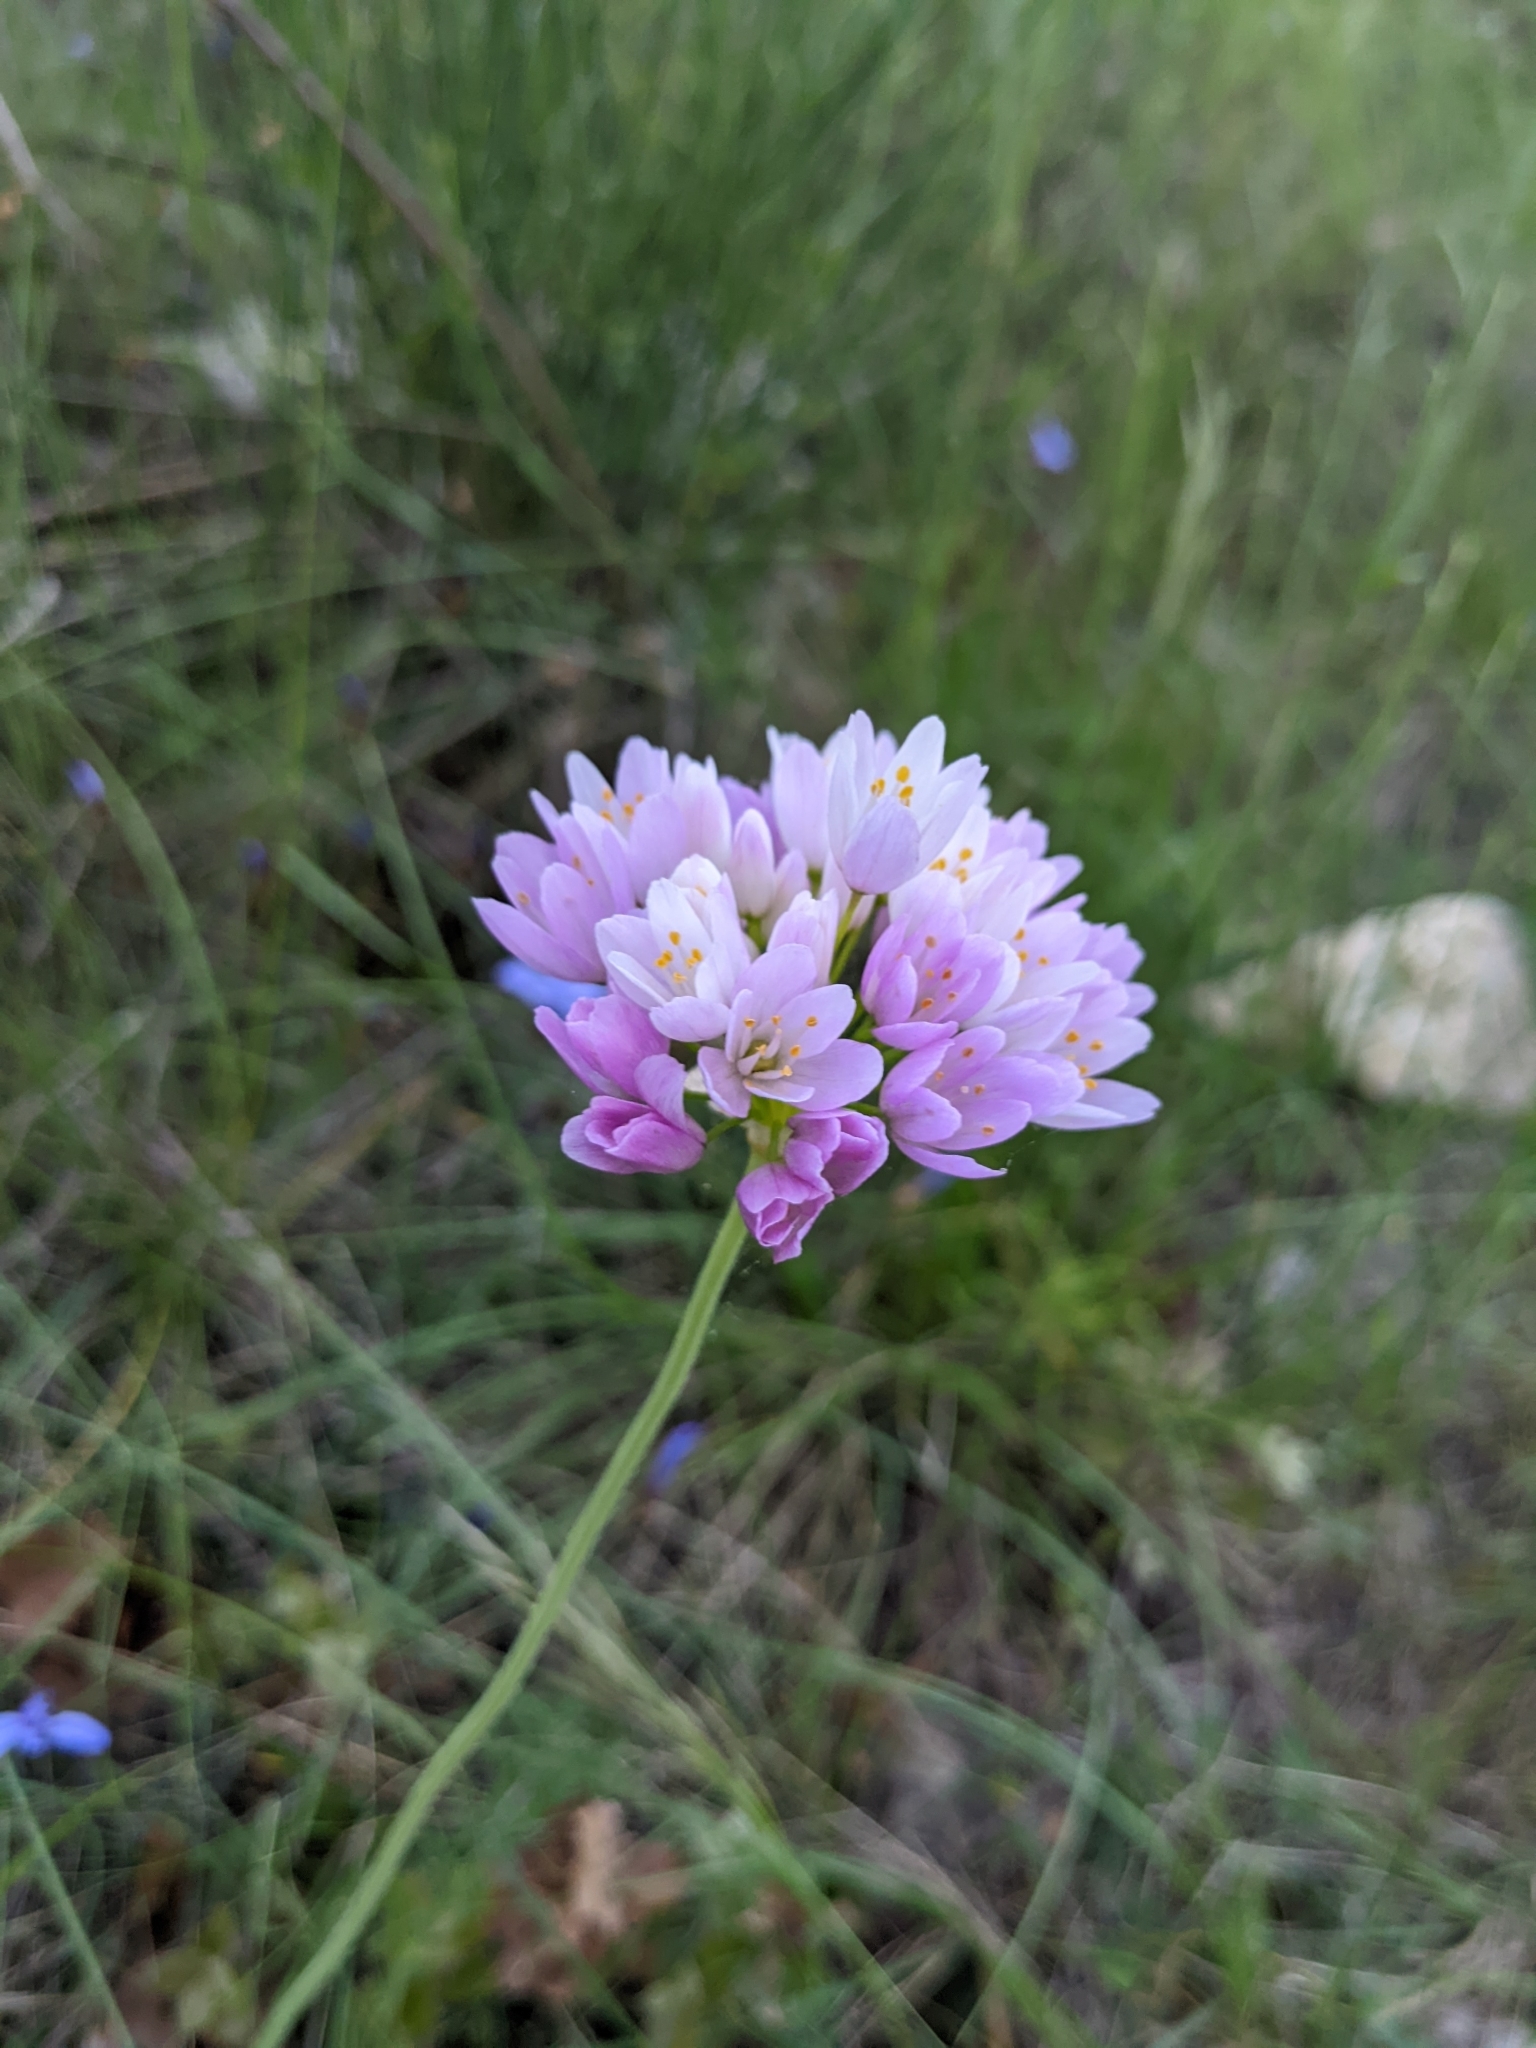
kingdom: Plantae
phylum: Tracheophyta
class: Liliopsida
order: Asparagales
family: Amaryllidaceae
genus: Allium
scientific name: Allium roseum
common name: Rosy garlic
